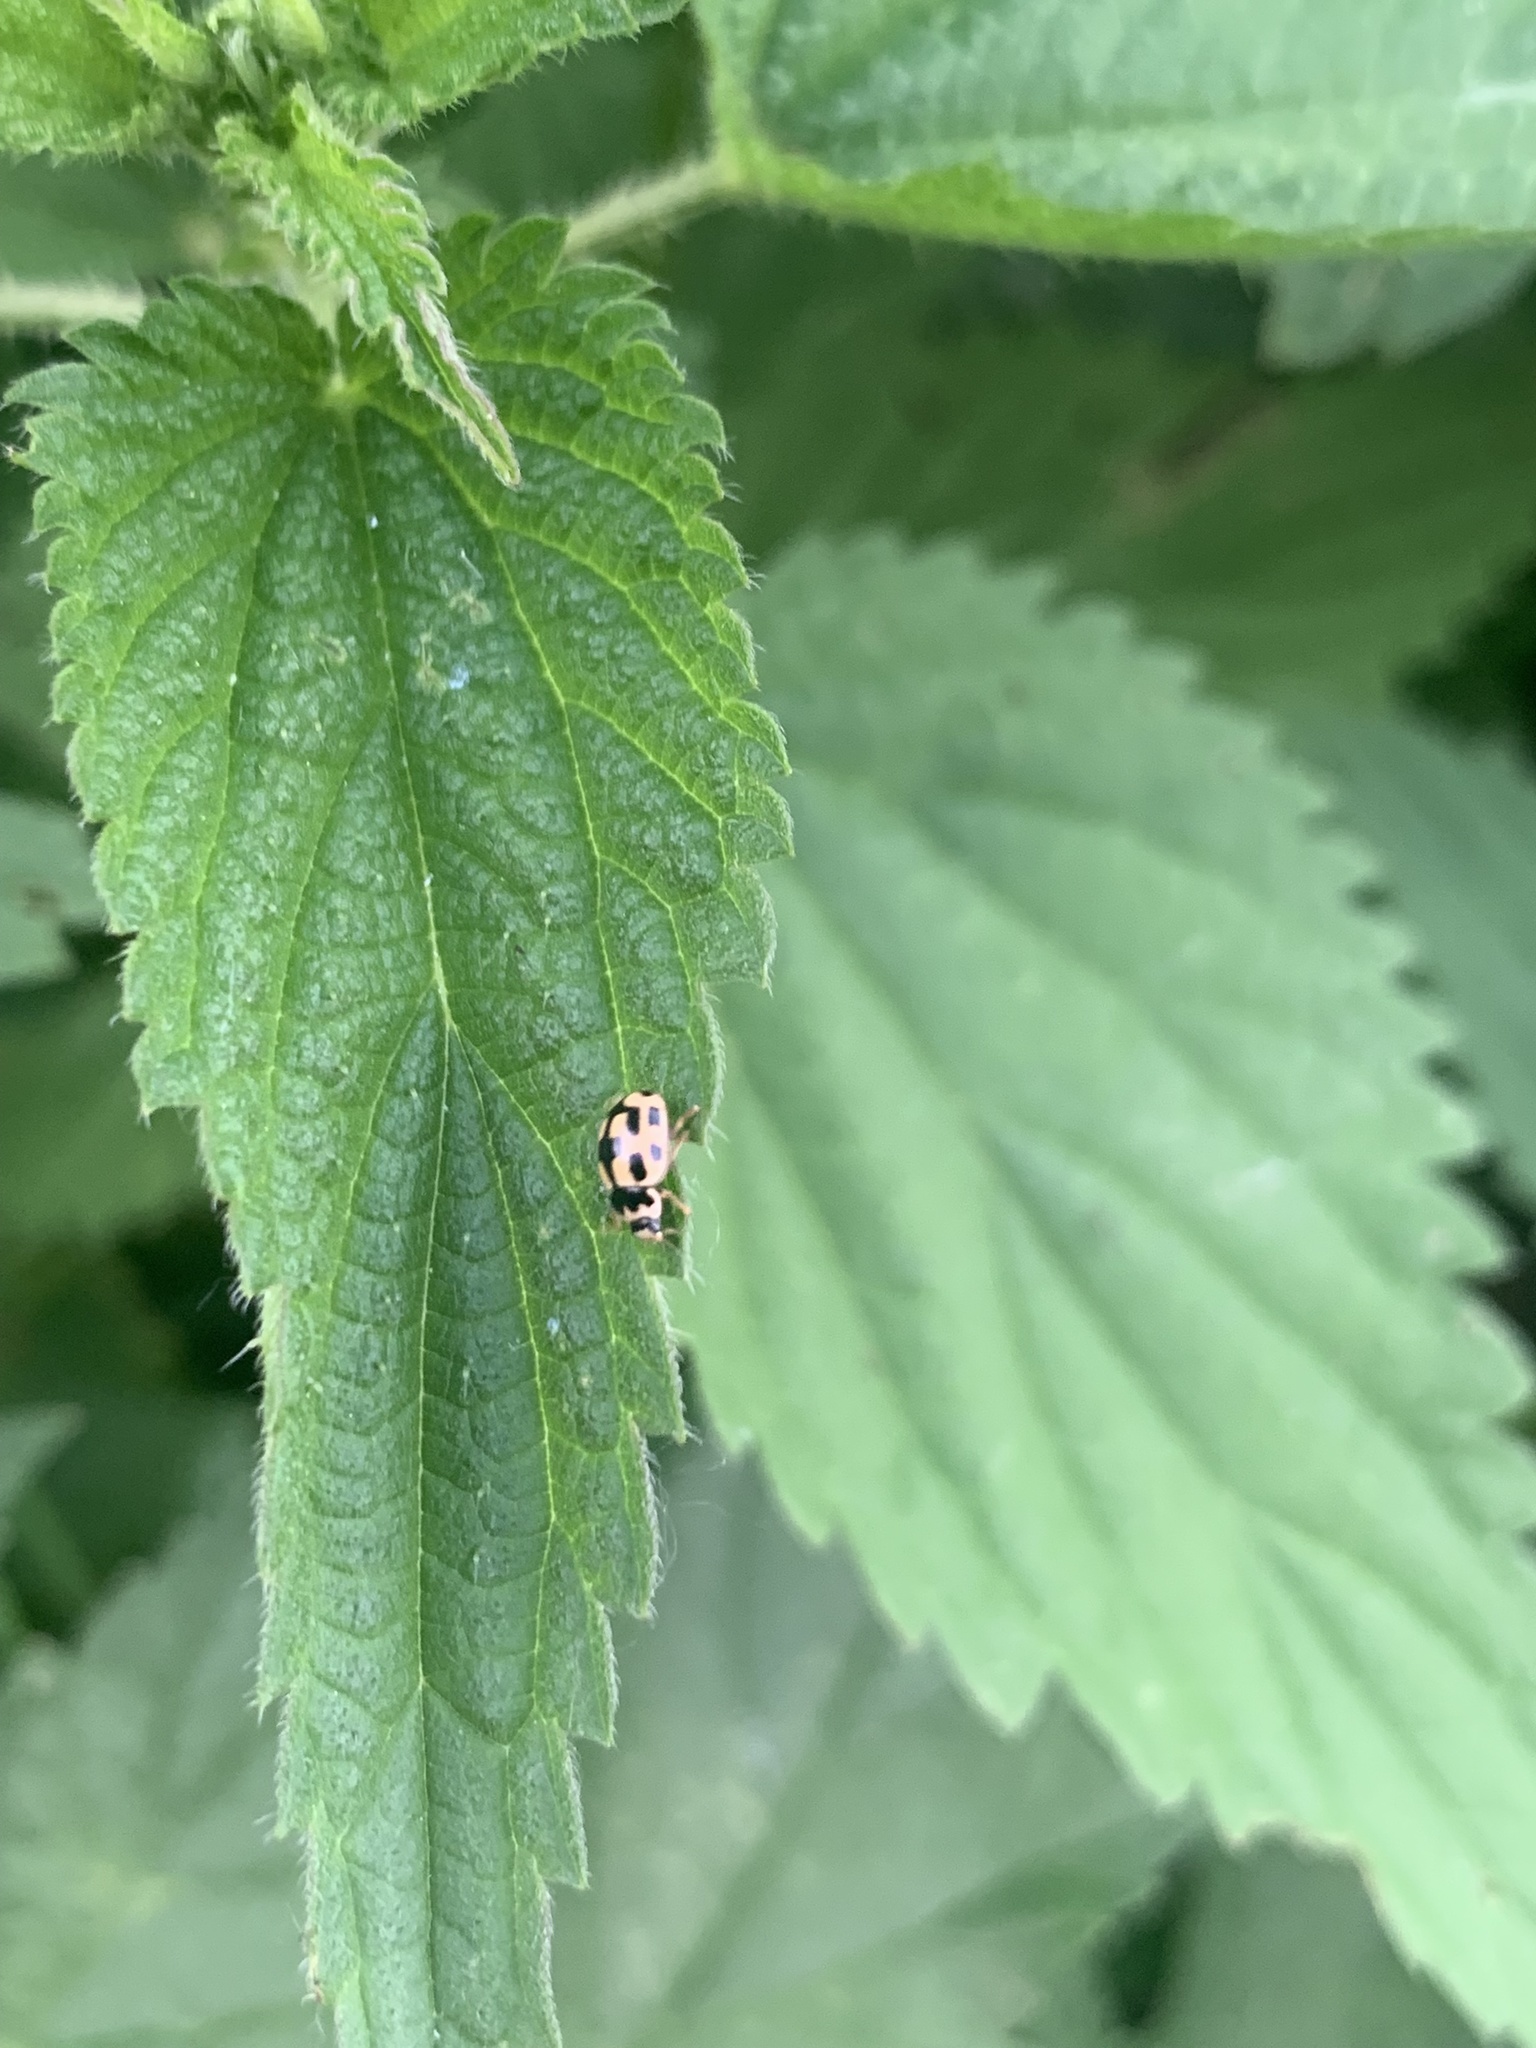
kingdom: Animalia
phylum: Arthropoda
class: Insecta
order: Coleoptera
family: Coccinellidae
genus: Propylaea
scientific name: Propylaea quatuordecimpunctata
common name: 14-spotted ladybird beetle
